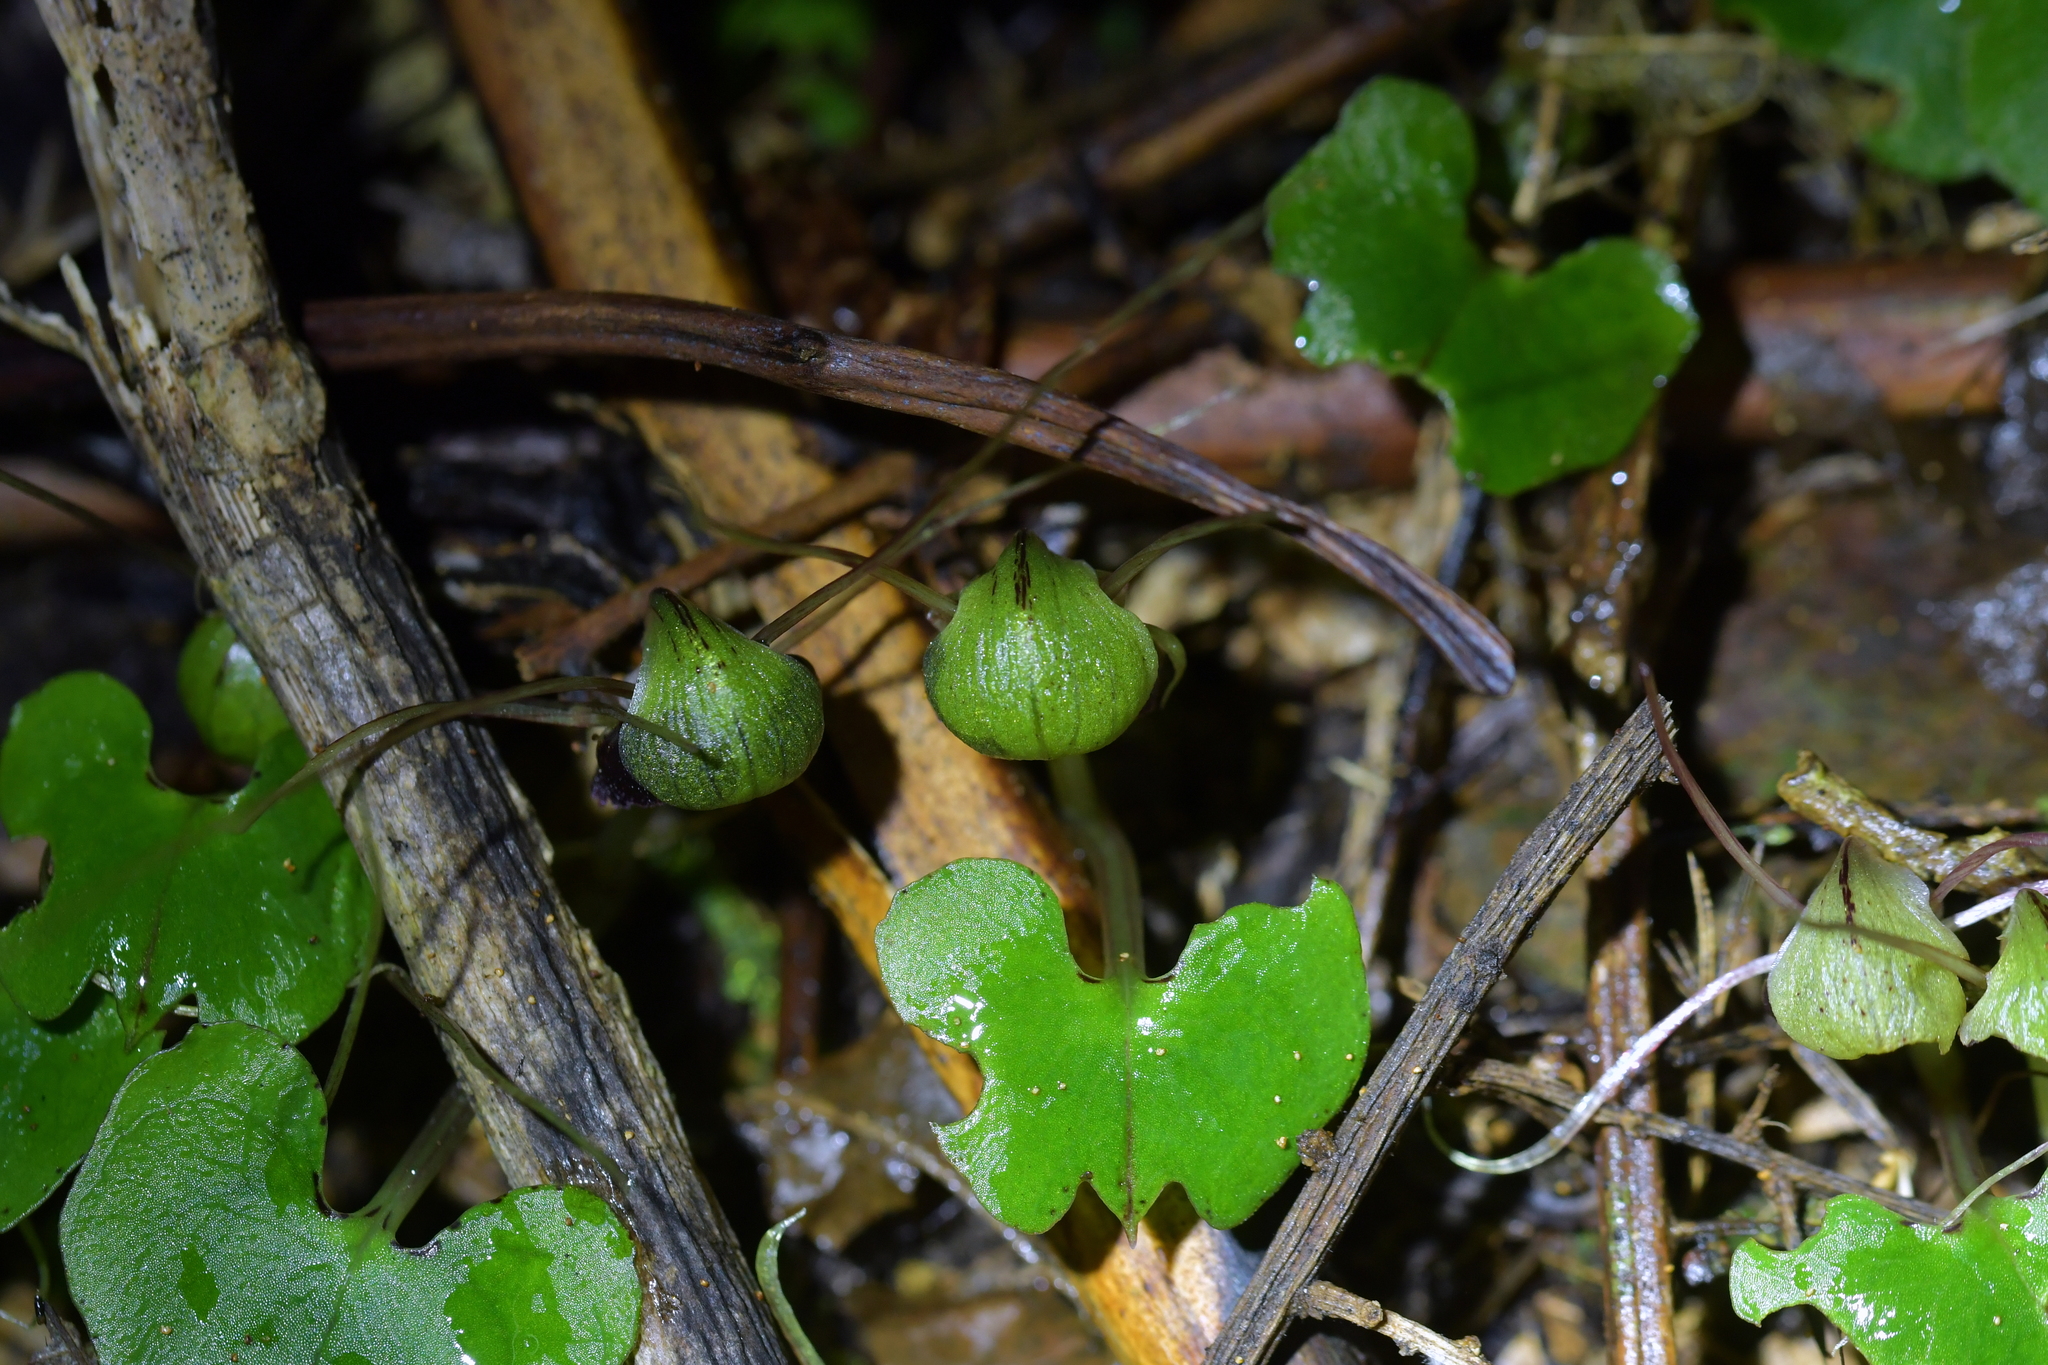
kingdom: Plantae
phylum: Tracheophyta
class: Liliopsida
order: Asparagales
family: Orchidaceae
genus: Corybas
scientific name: Corybas trilobus
